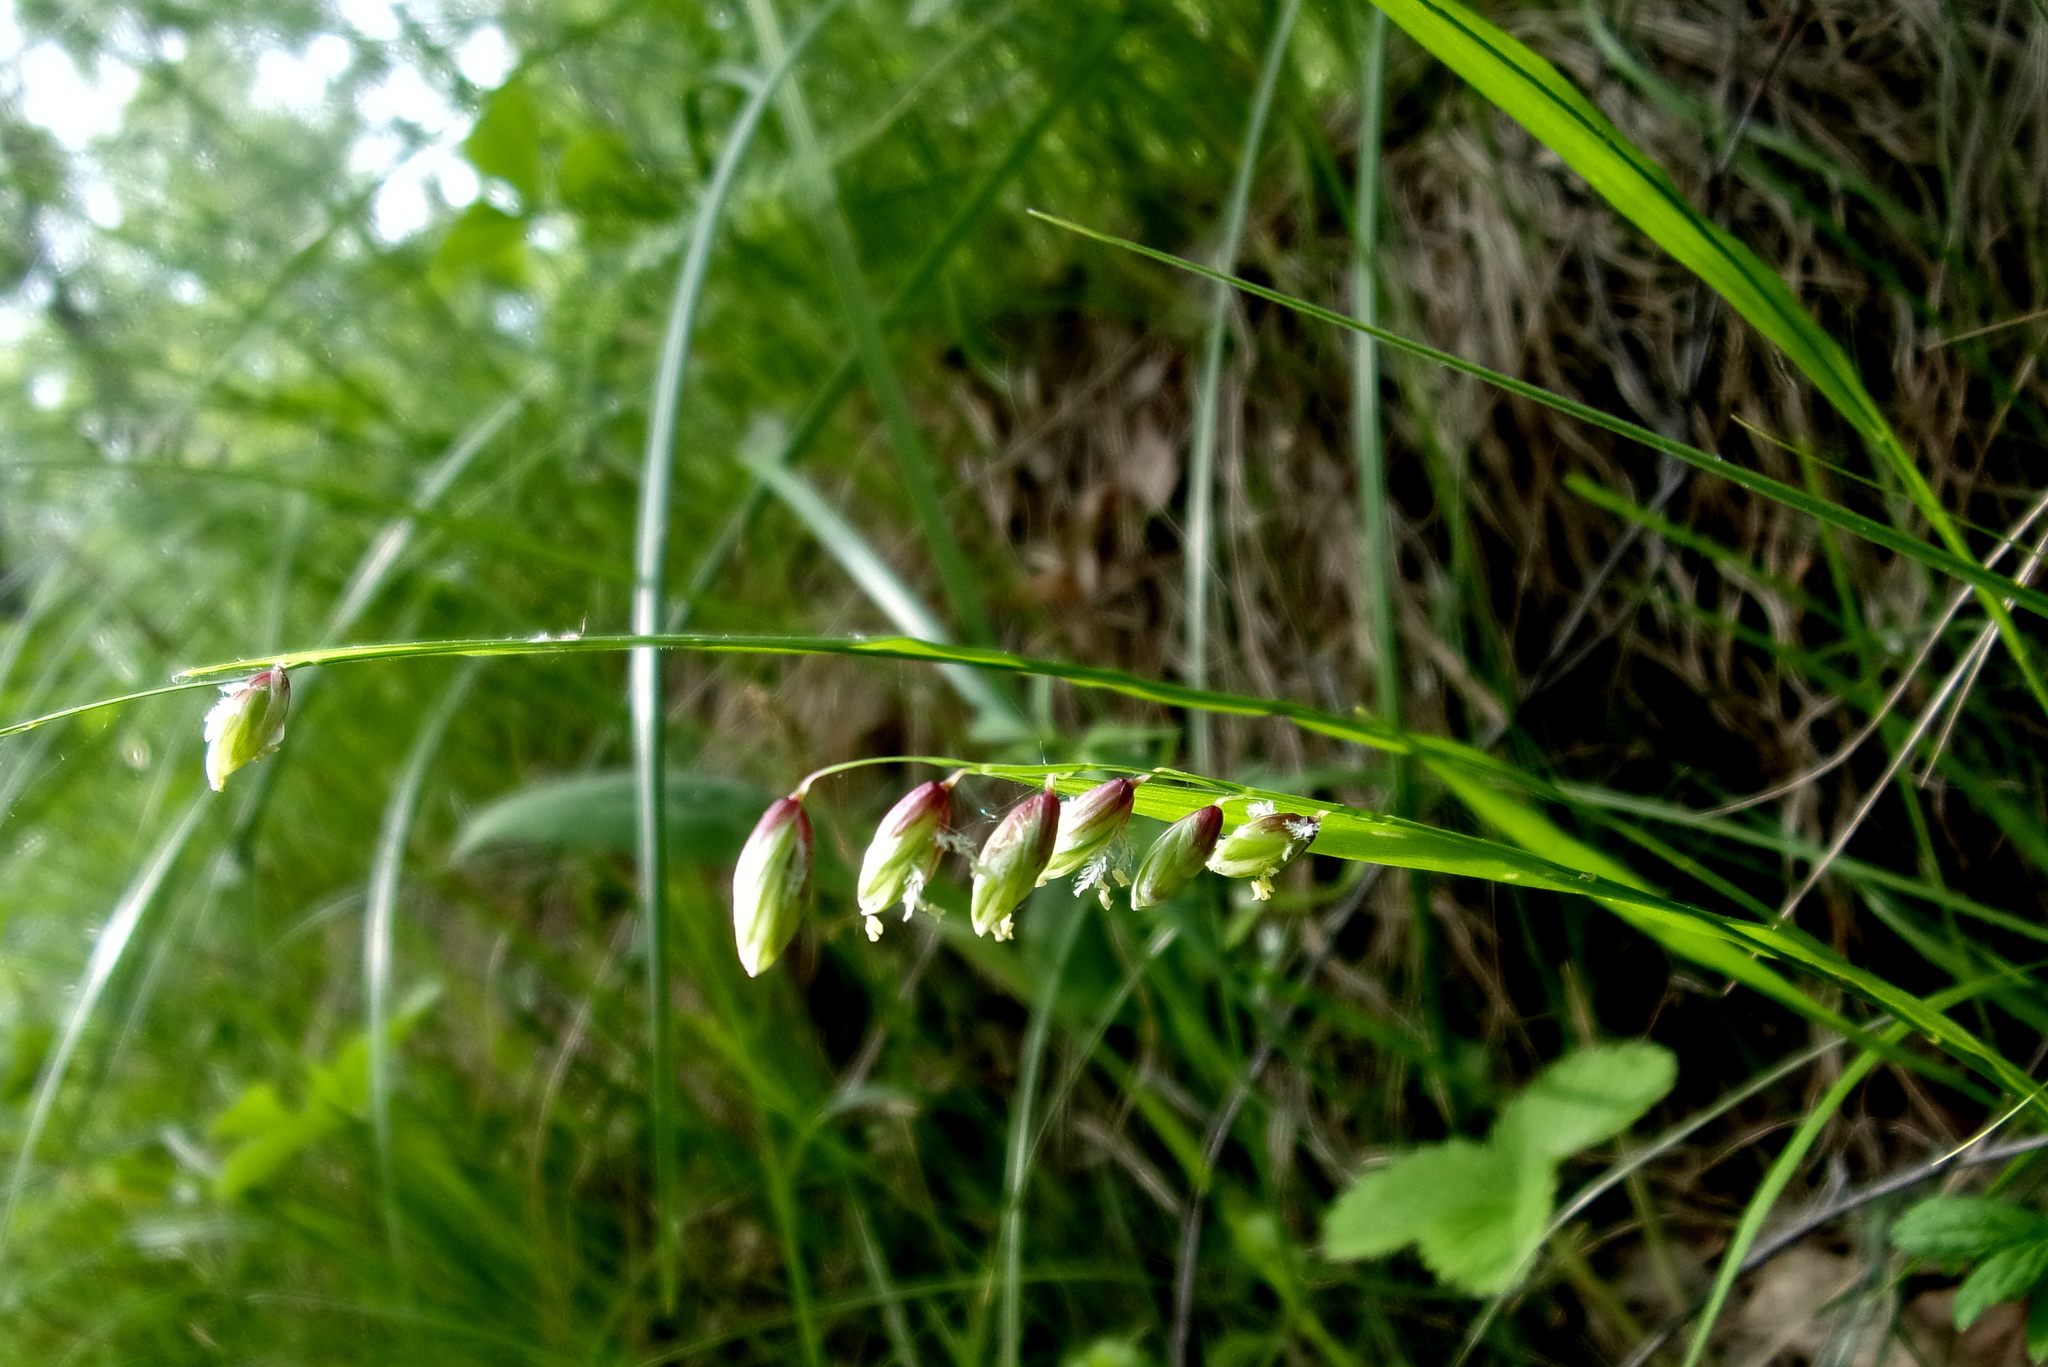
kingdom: Plantae
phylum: Tracheophyta
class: Liliopsida
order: Poales
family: Poaceae
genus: Melica
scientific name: Melica nutans
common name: Mountain melick
